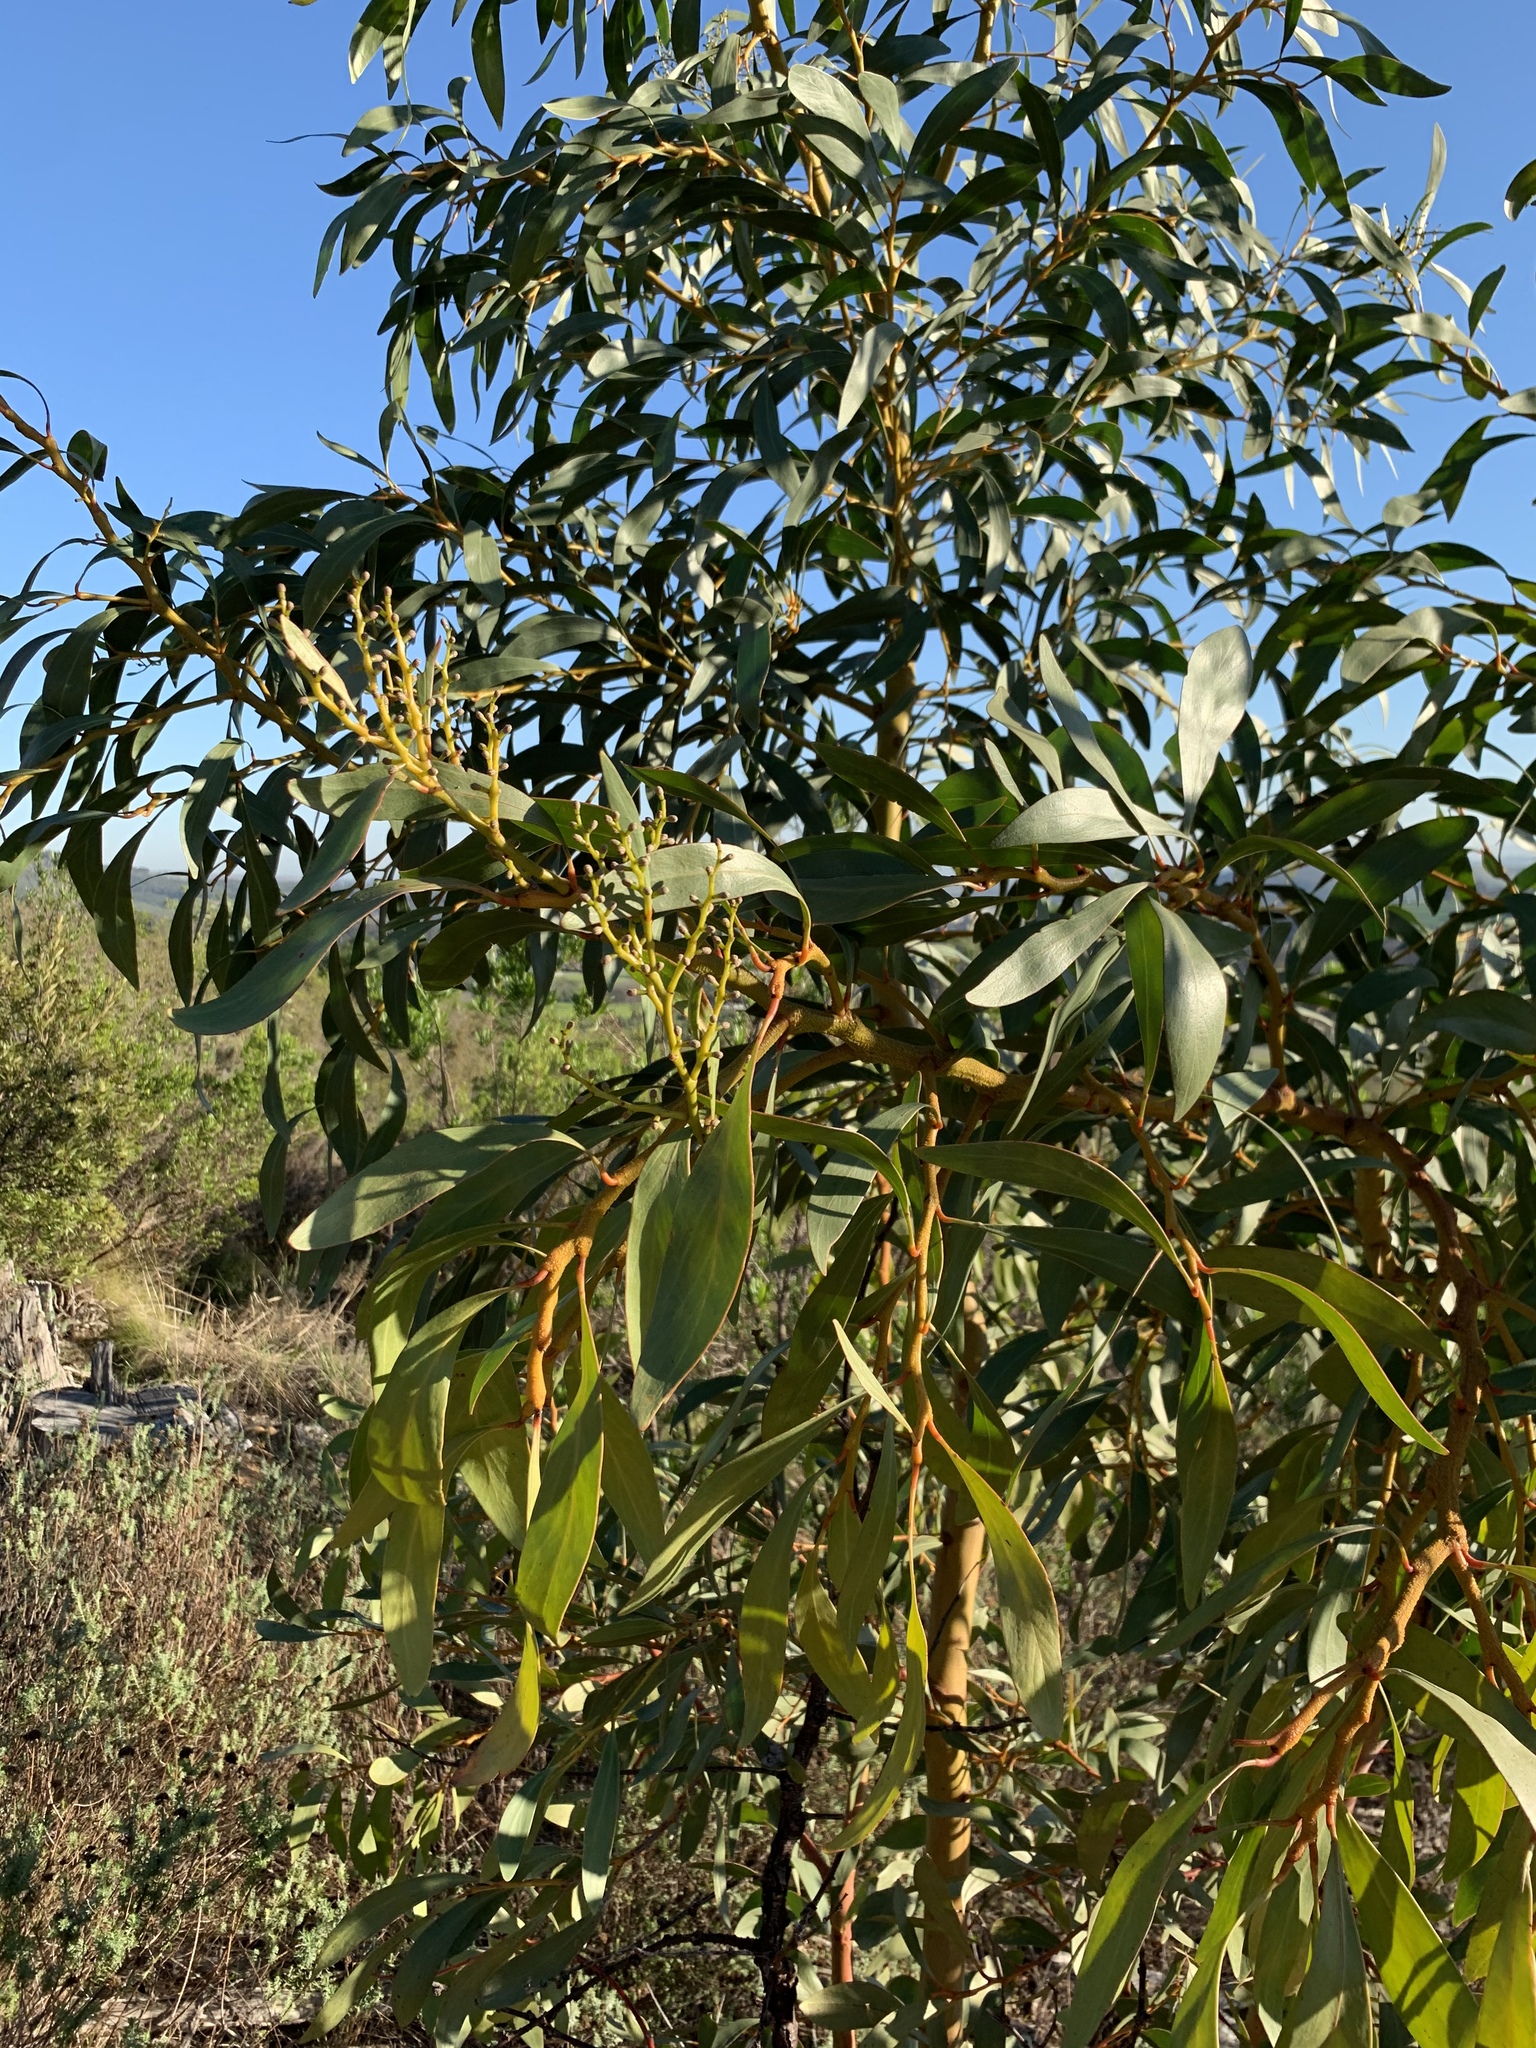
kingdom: Plantae
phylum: Tracheophyta
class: Magnoliopsida
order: Fabales
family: Fabaceae
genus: Acacia
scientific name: Acacia pycnantha
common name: Golden wattle
